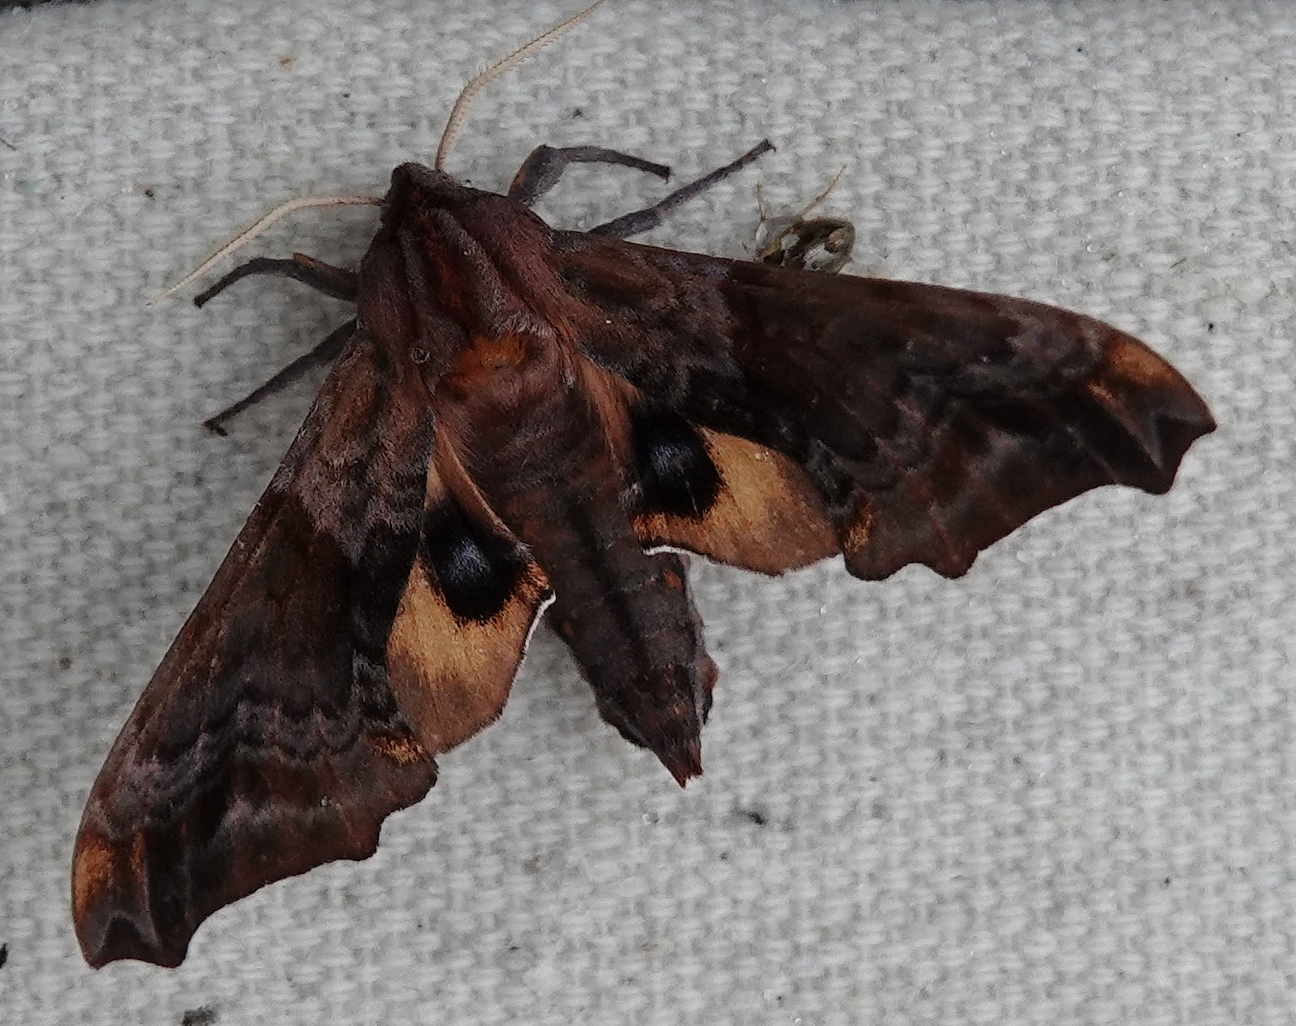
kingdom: Animalia
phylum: Arthropoda
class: Insecta
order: Lepidoptera
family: Sphingidae
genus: Paonias
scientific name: Paonias myops
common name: Small-eyed sphinx
